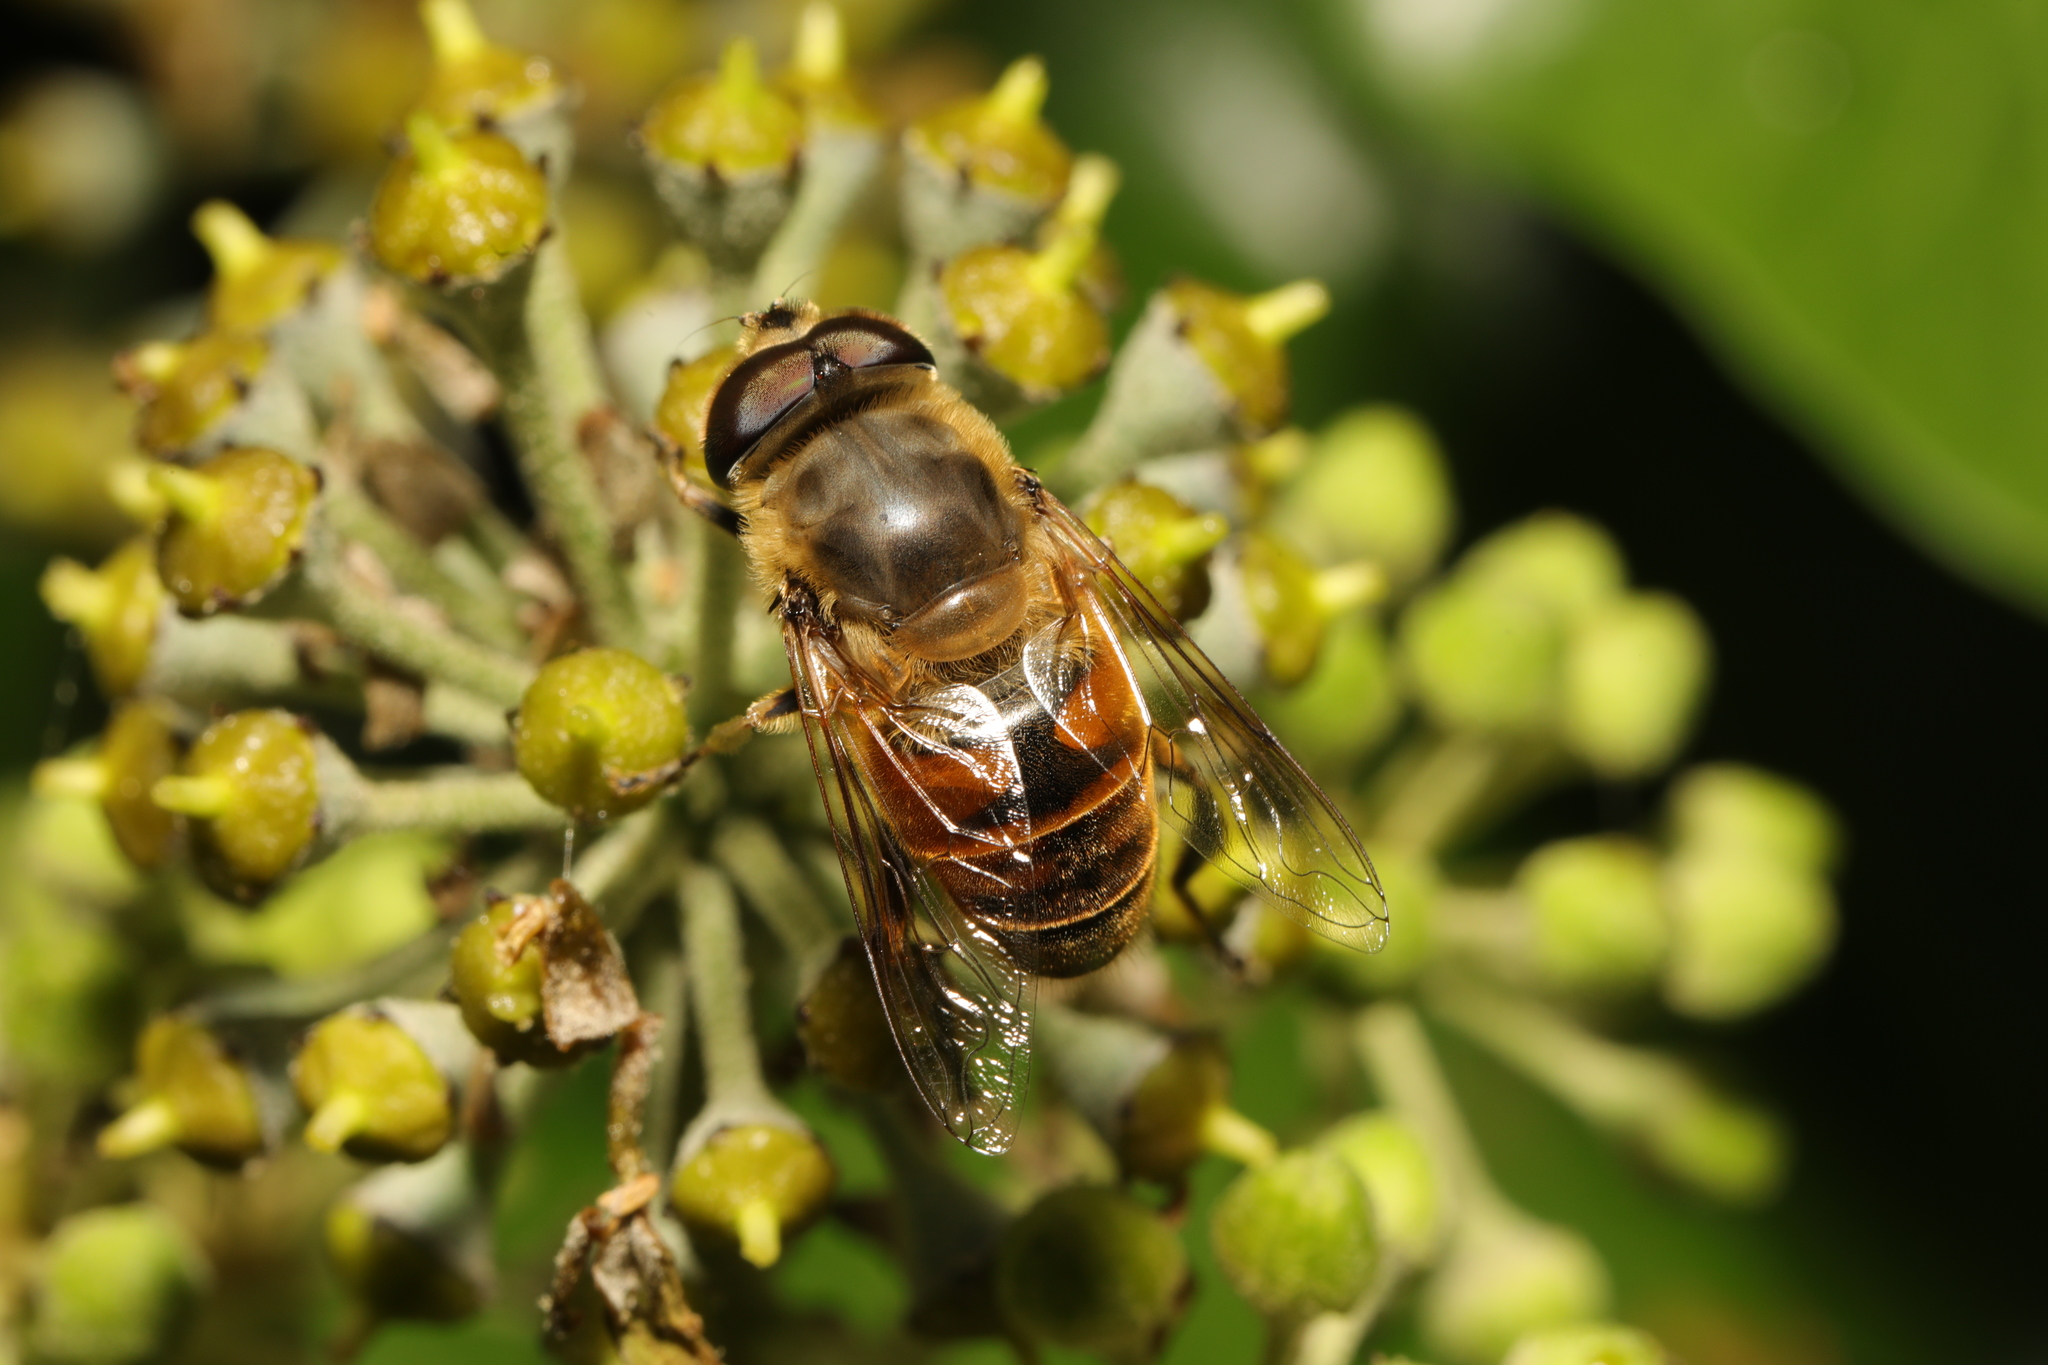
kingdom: Animalia
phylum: Arthropoda
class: Insecta
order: Diptera
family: Syrphidae
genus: Eristalis
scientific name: Eristalis tenax
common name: Drone fly
